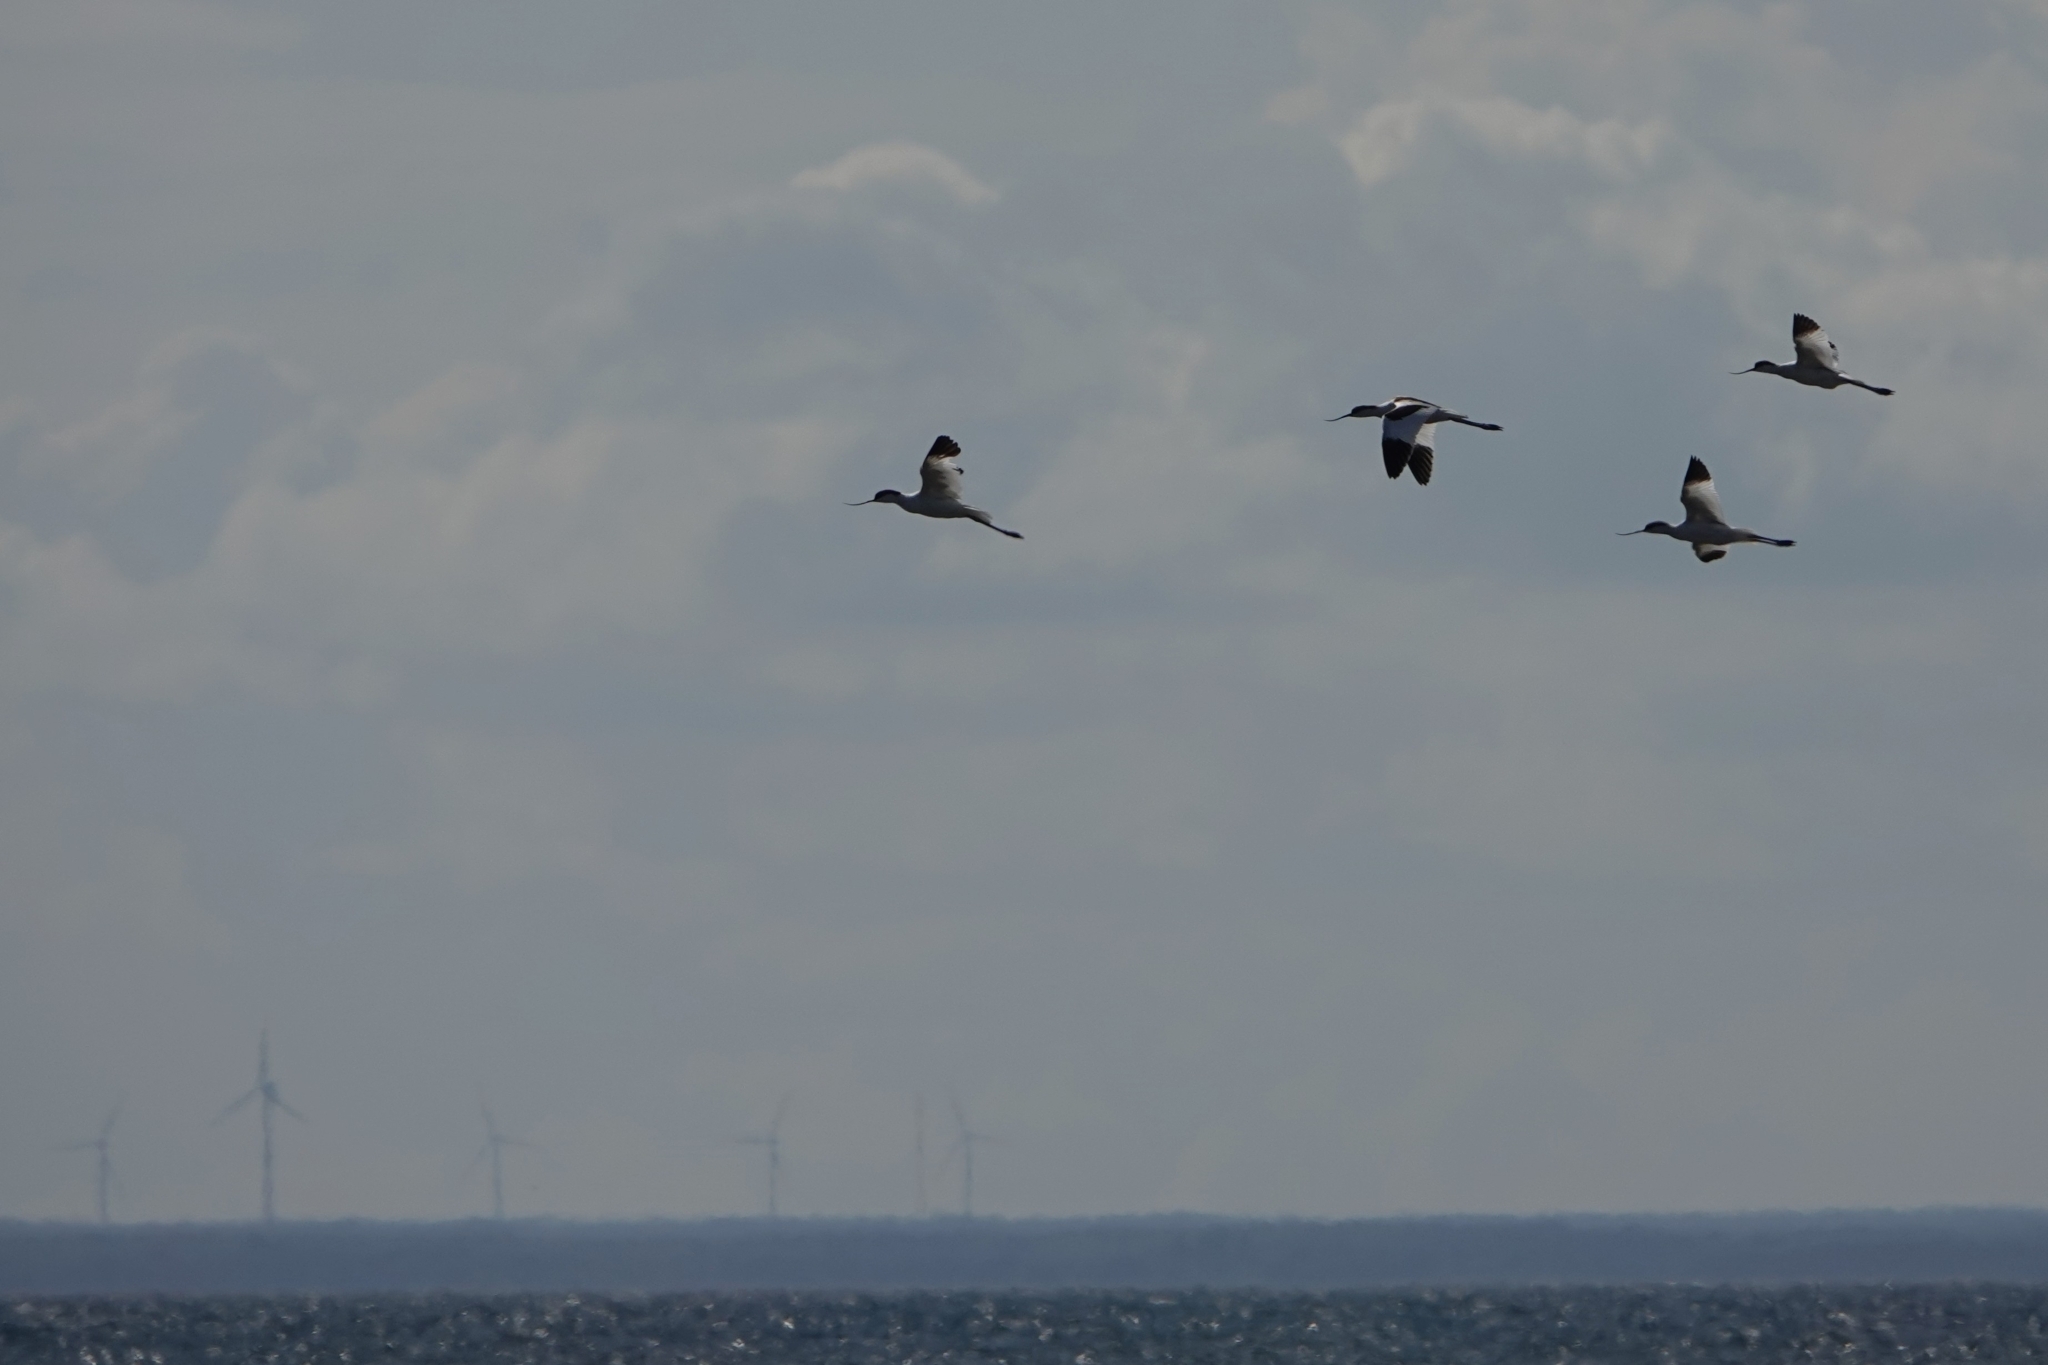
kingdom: Animalia
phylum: Chordata
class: Aves
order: Charadriiformes
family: Recurvirostridae
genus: Recurvirostra
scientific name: Recurvirostra avosetta
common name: Pied avocet
